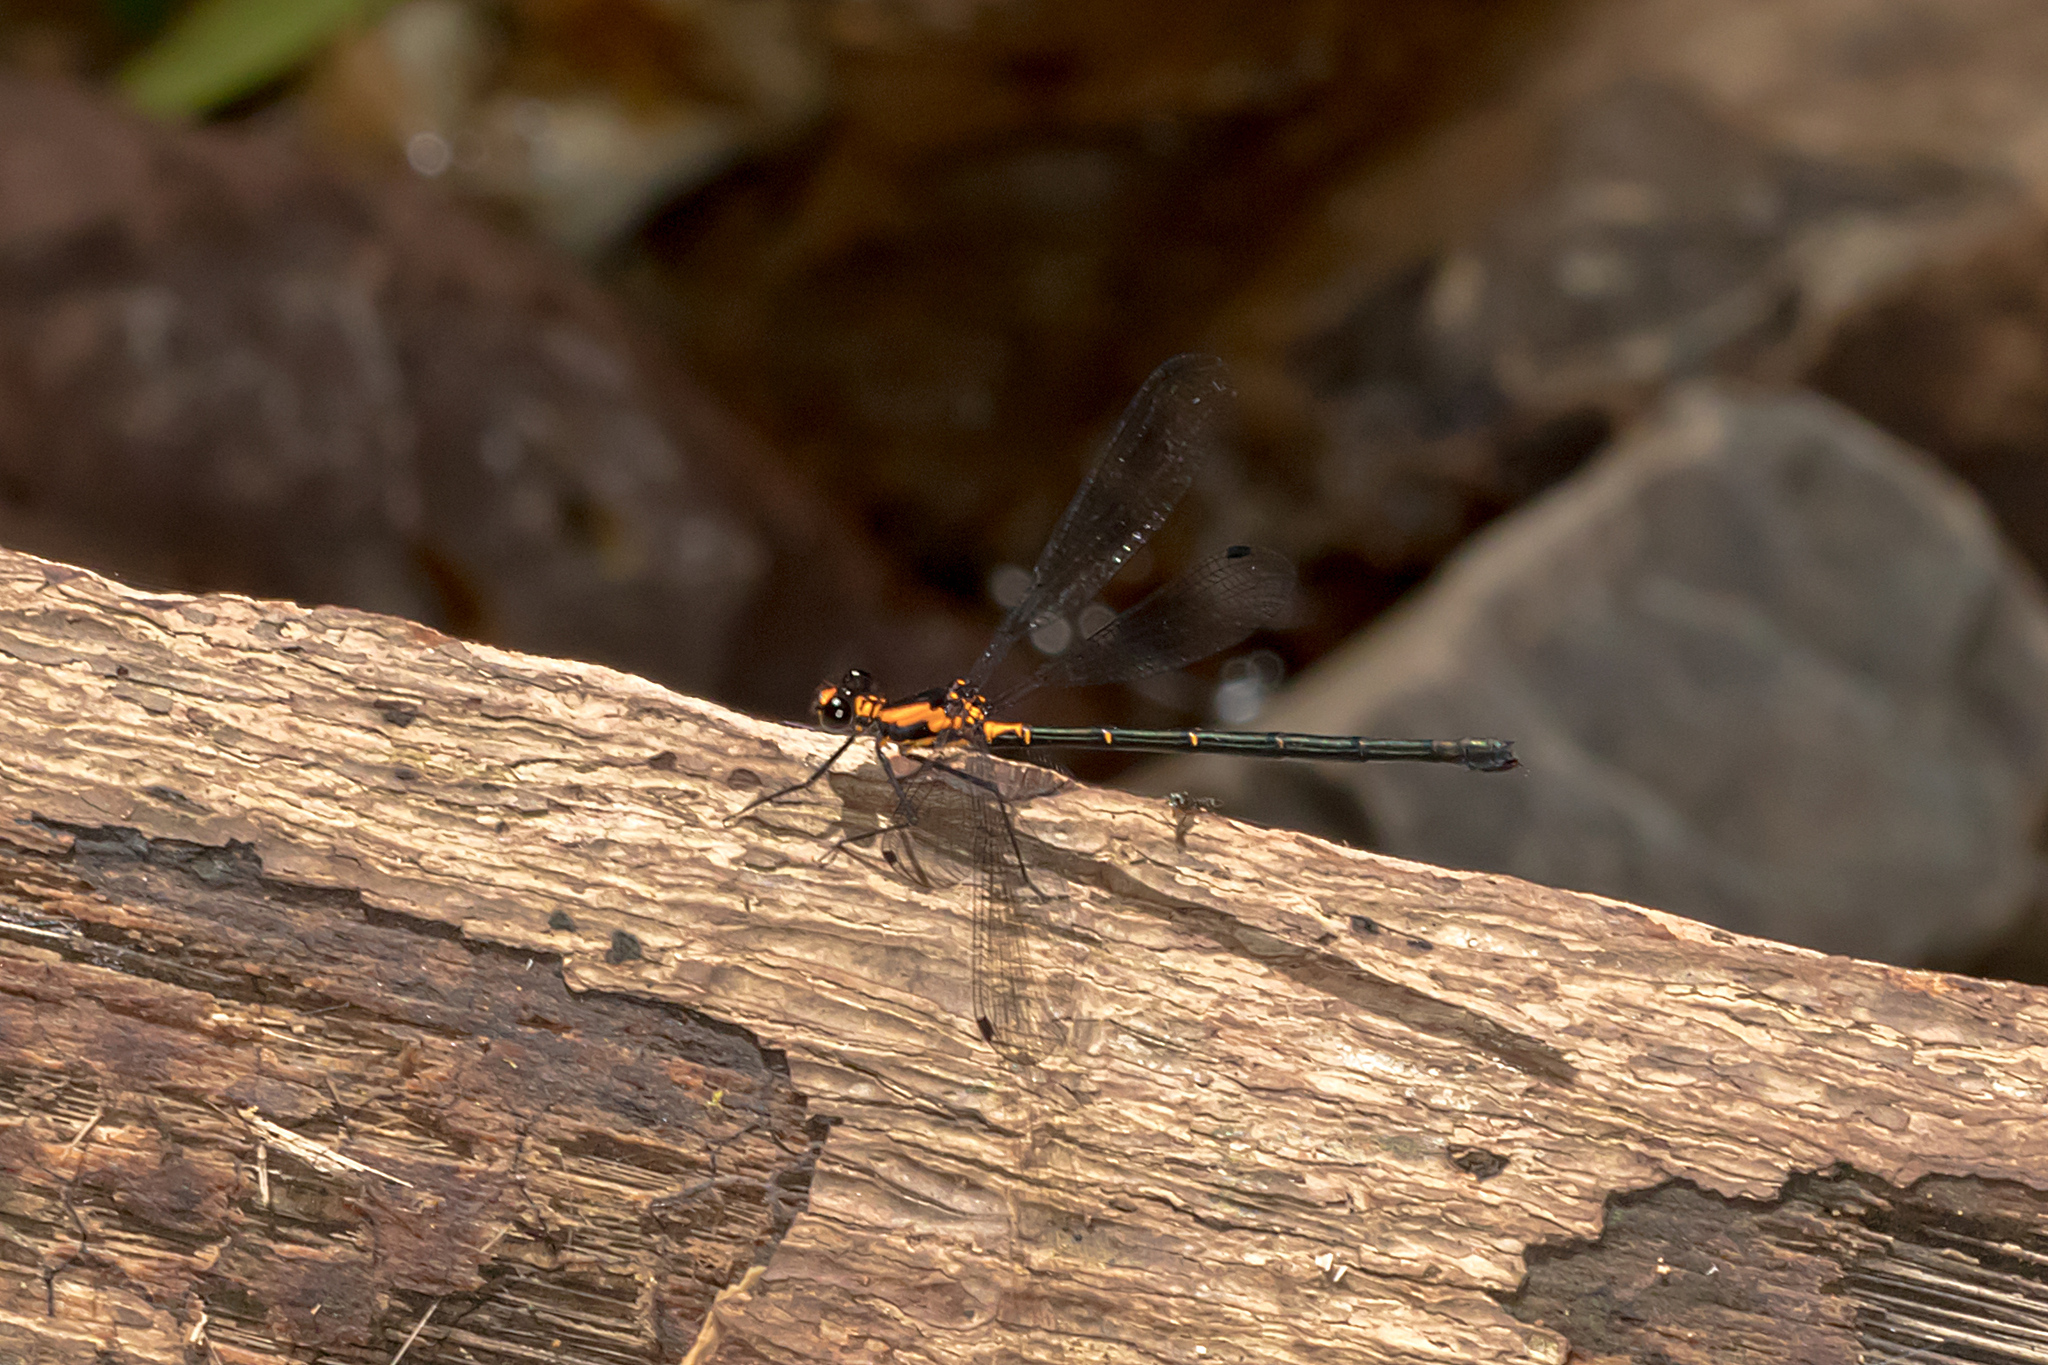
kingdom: Animalia
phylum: Arthropoda
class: Insecta
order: Odonata
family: Argiolestidae
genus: Austroargiolestes
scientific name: Austroargiolestes amabilis
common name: Flame flatwing
